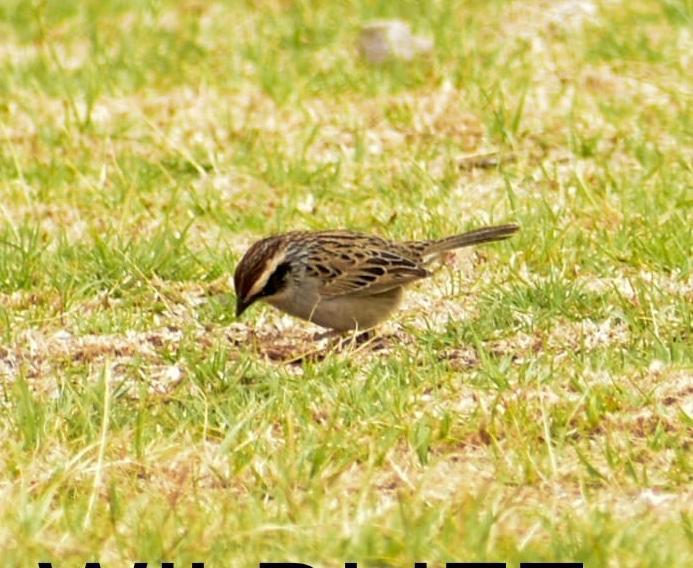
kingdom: Animalia
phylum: Chordata
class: Aves
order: Passeriformes
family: Passerellidae
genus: Oriturus
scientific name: Oriturus superciliosus
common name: Striped sparrow
